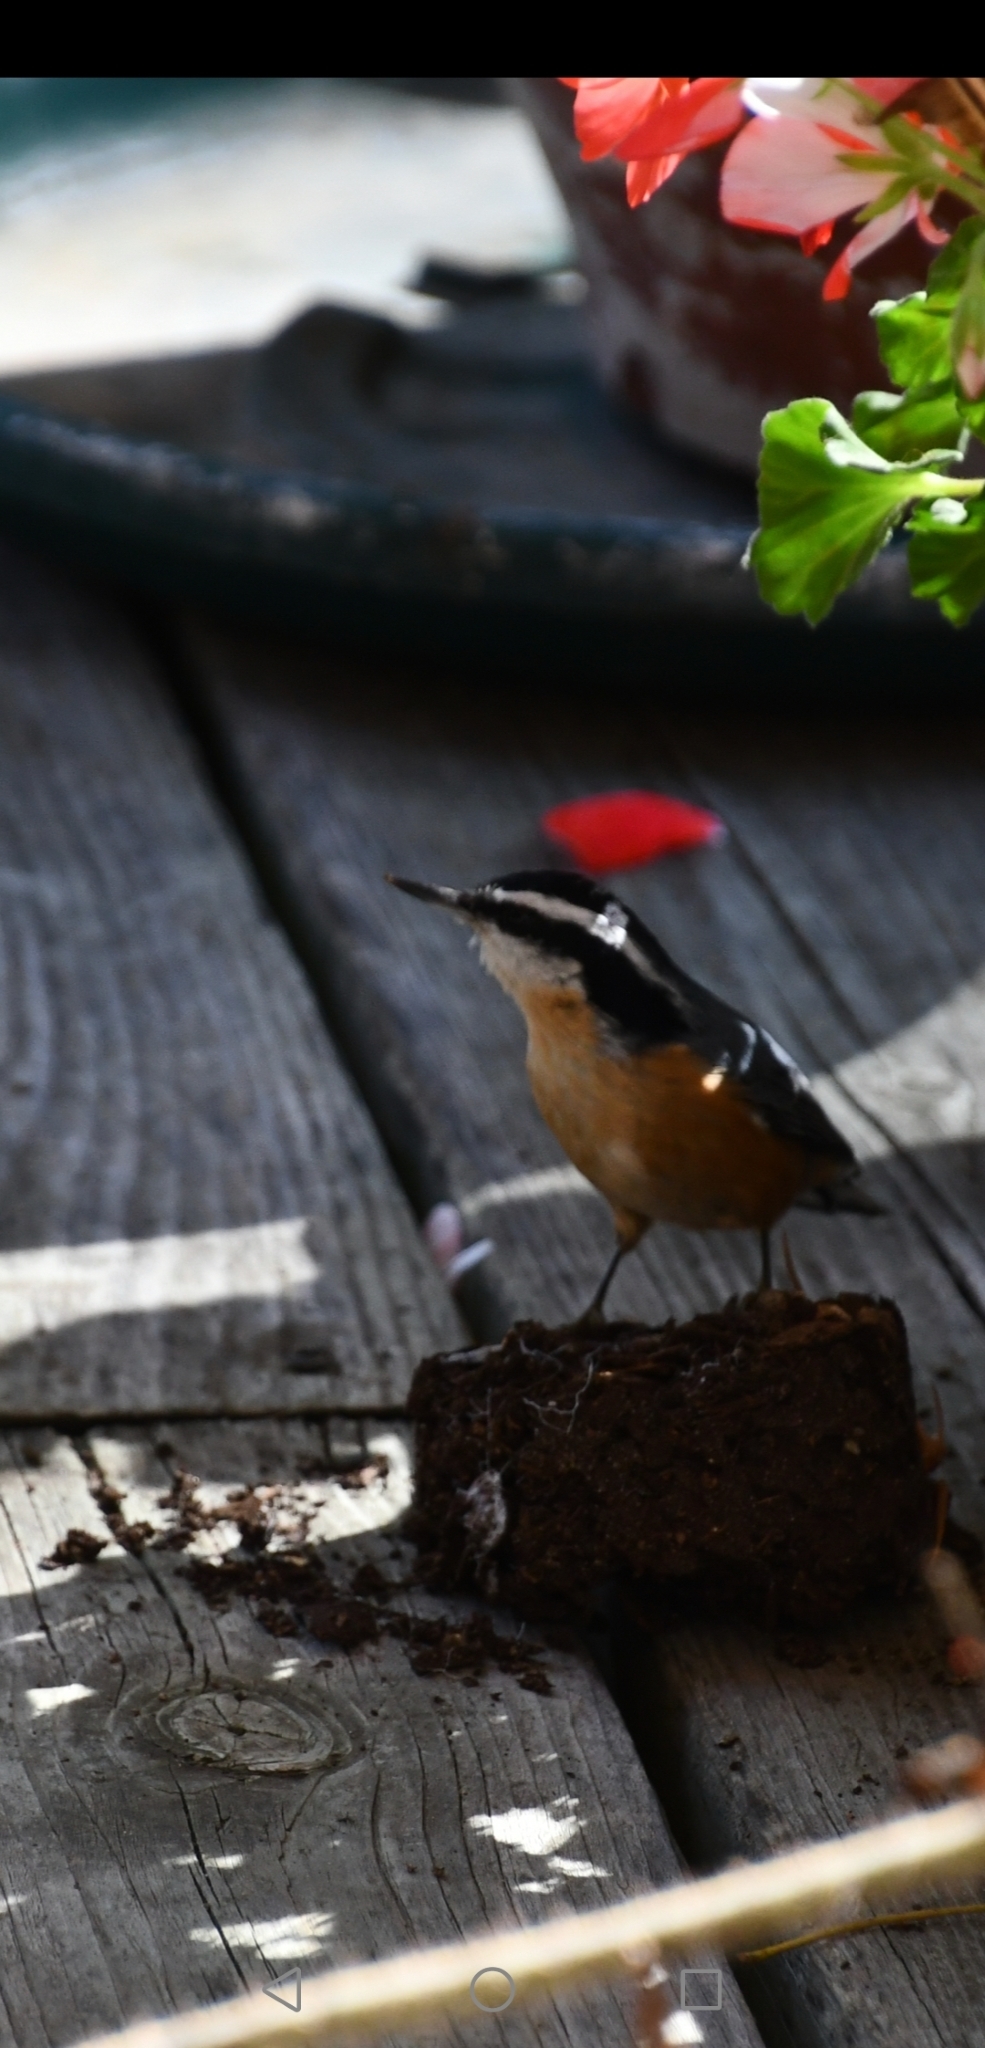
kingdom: Animalia
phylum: Chordata
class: Aves
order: Passeriformes
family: Sittidae
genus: Sitta
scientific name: Sitta canadensis
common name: Red-breasted nuthatch
